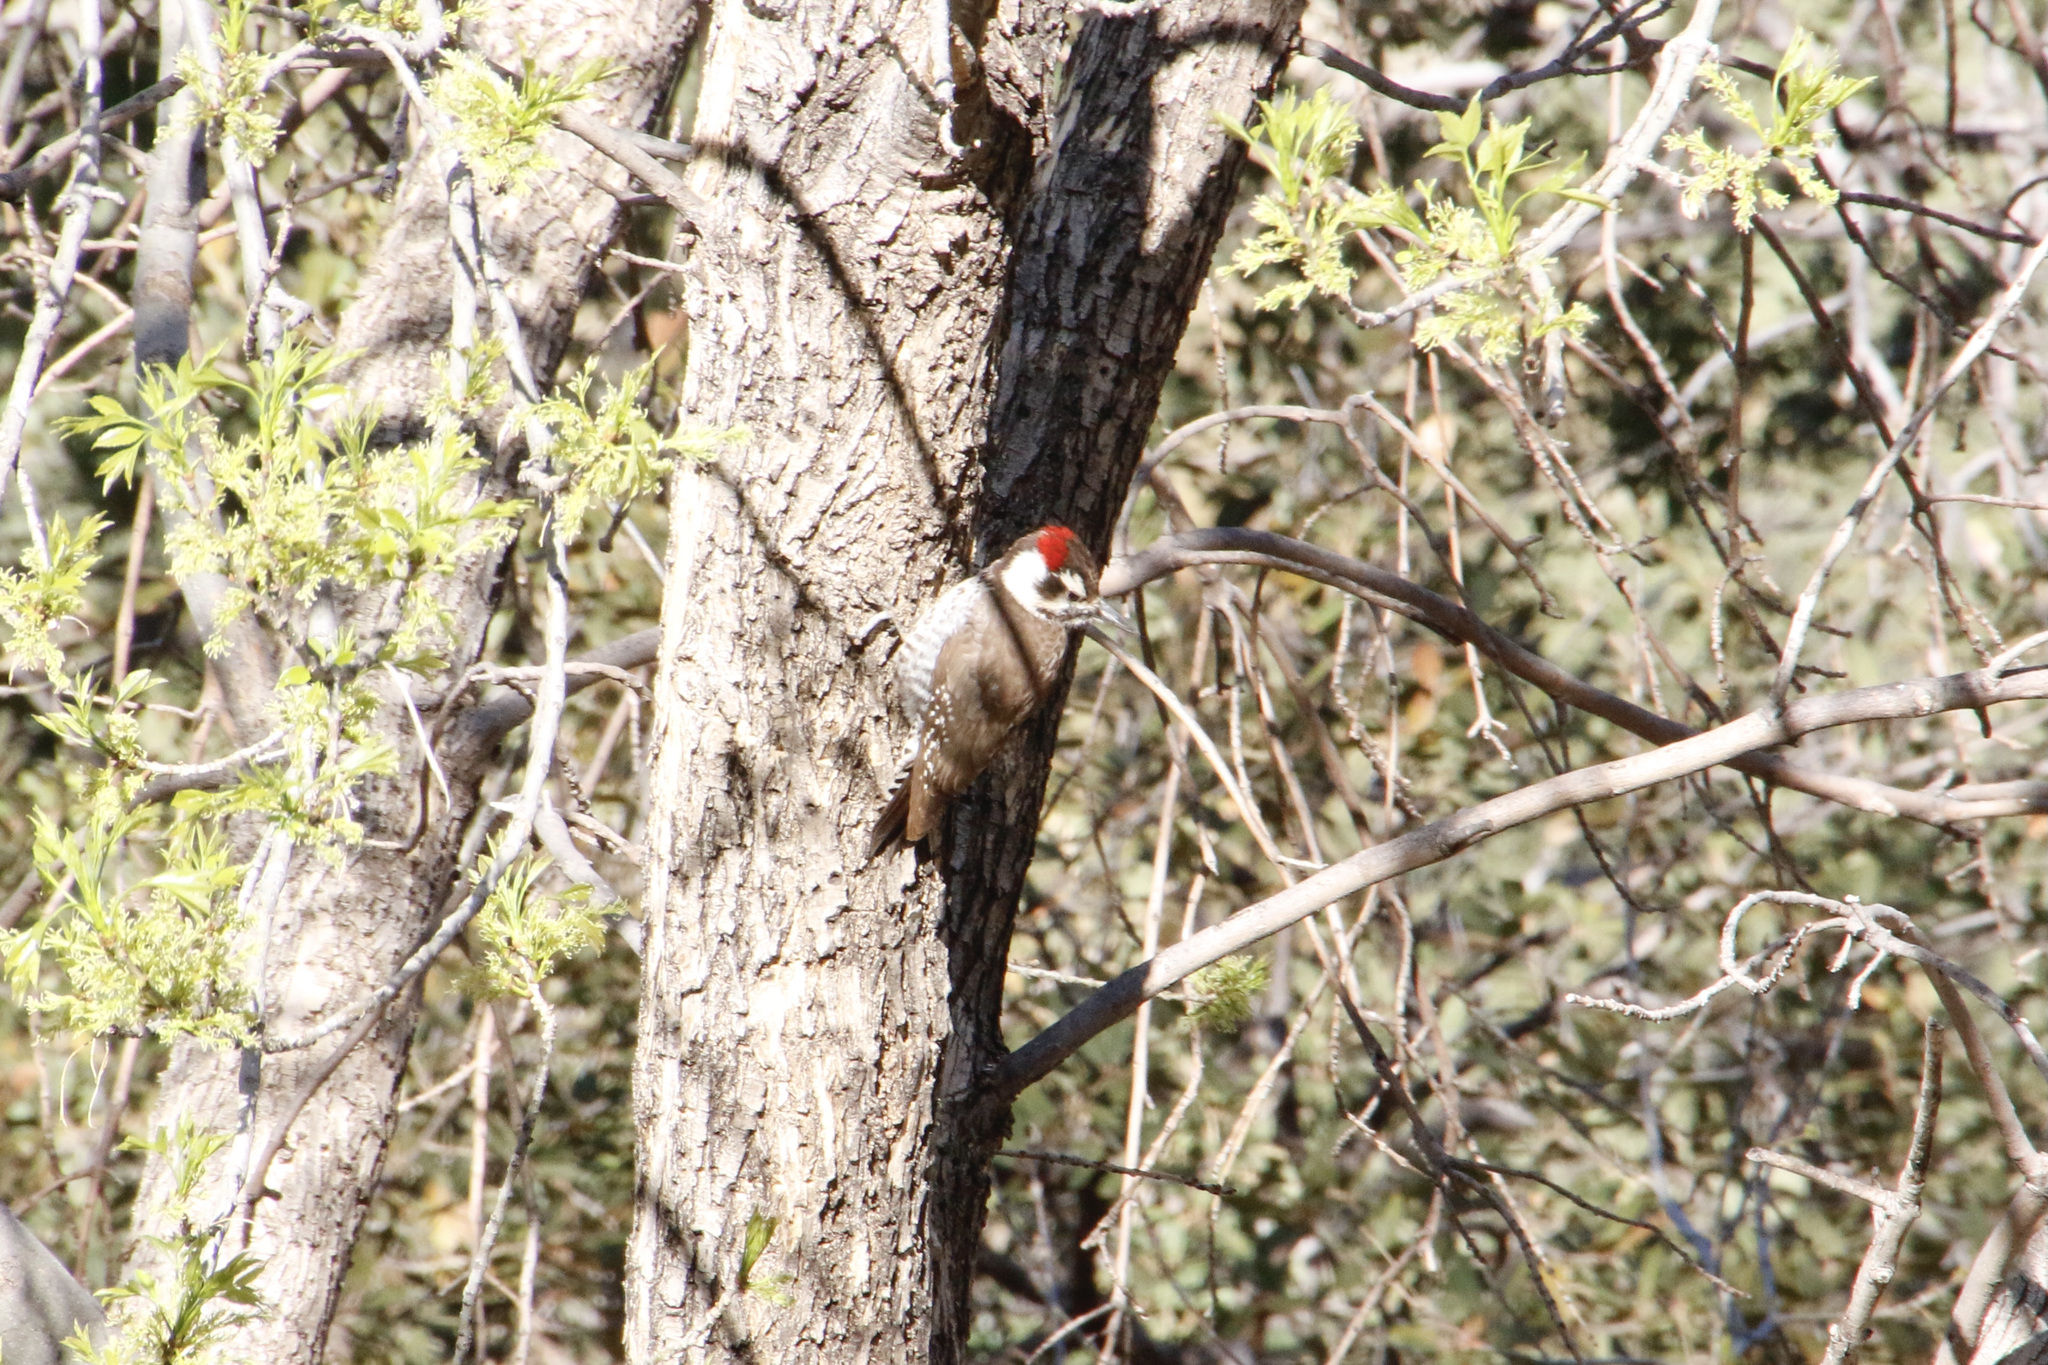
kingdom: Animalia
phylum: Chordata
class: Aves
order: Piciformes
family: Picidae
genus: Leuconotopicus
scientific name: Leuconotopicus arizonae
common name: Arizona woodpecker
